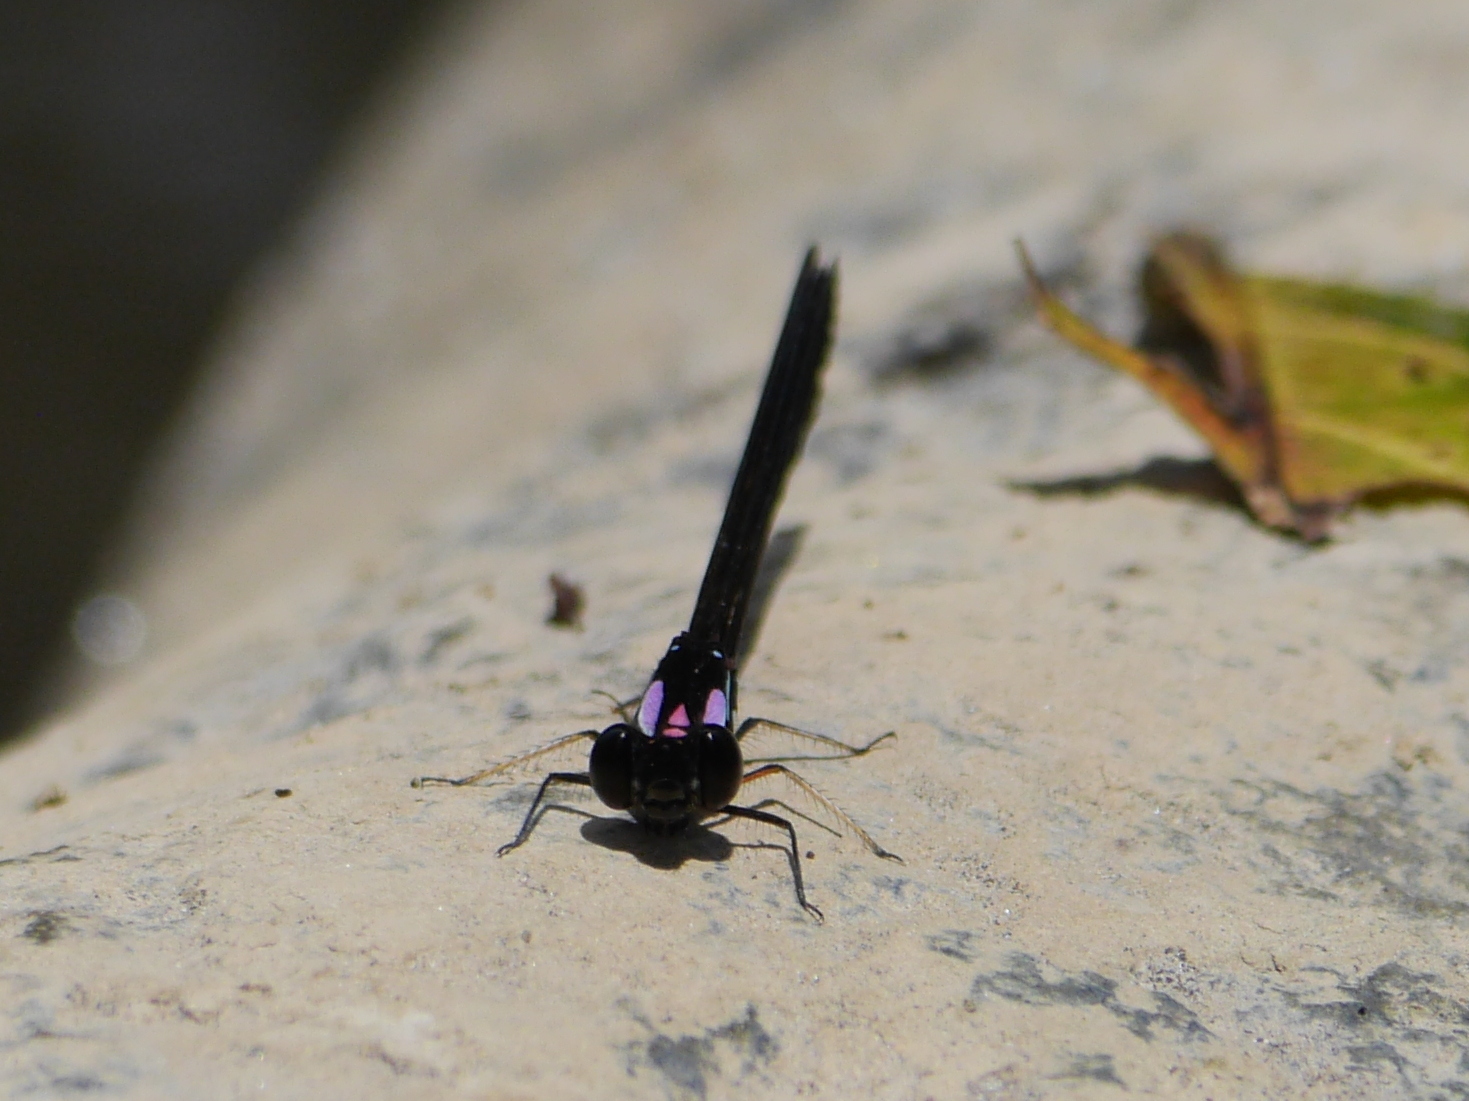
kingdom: Animalia
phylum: Arthropoda
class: Insecta
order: Odonata
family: Chlorocyphidae
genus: Heliocypha
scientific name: Heliocypha angusta
